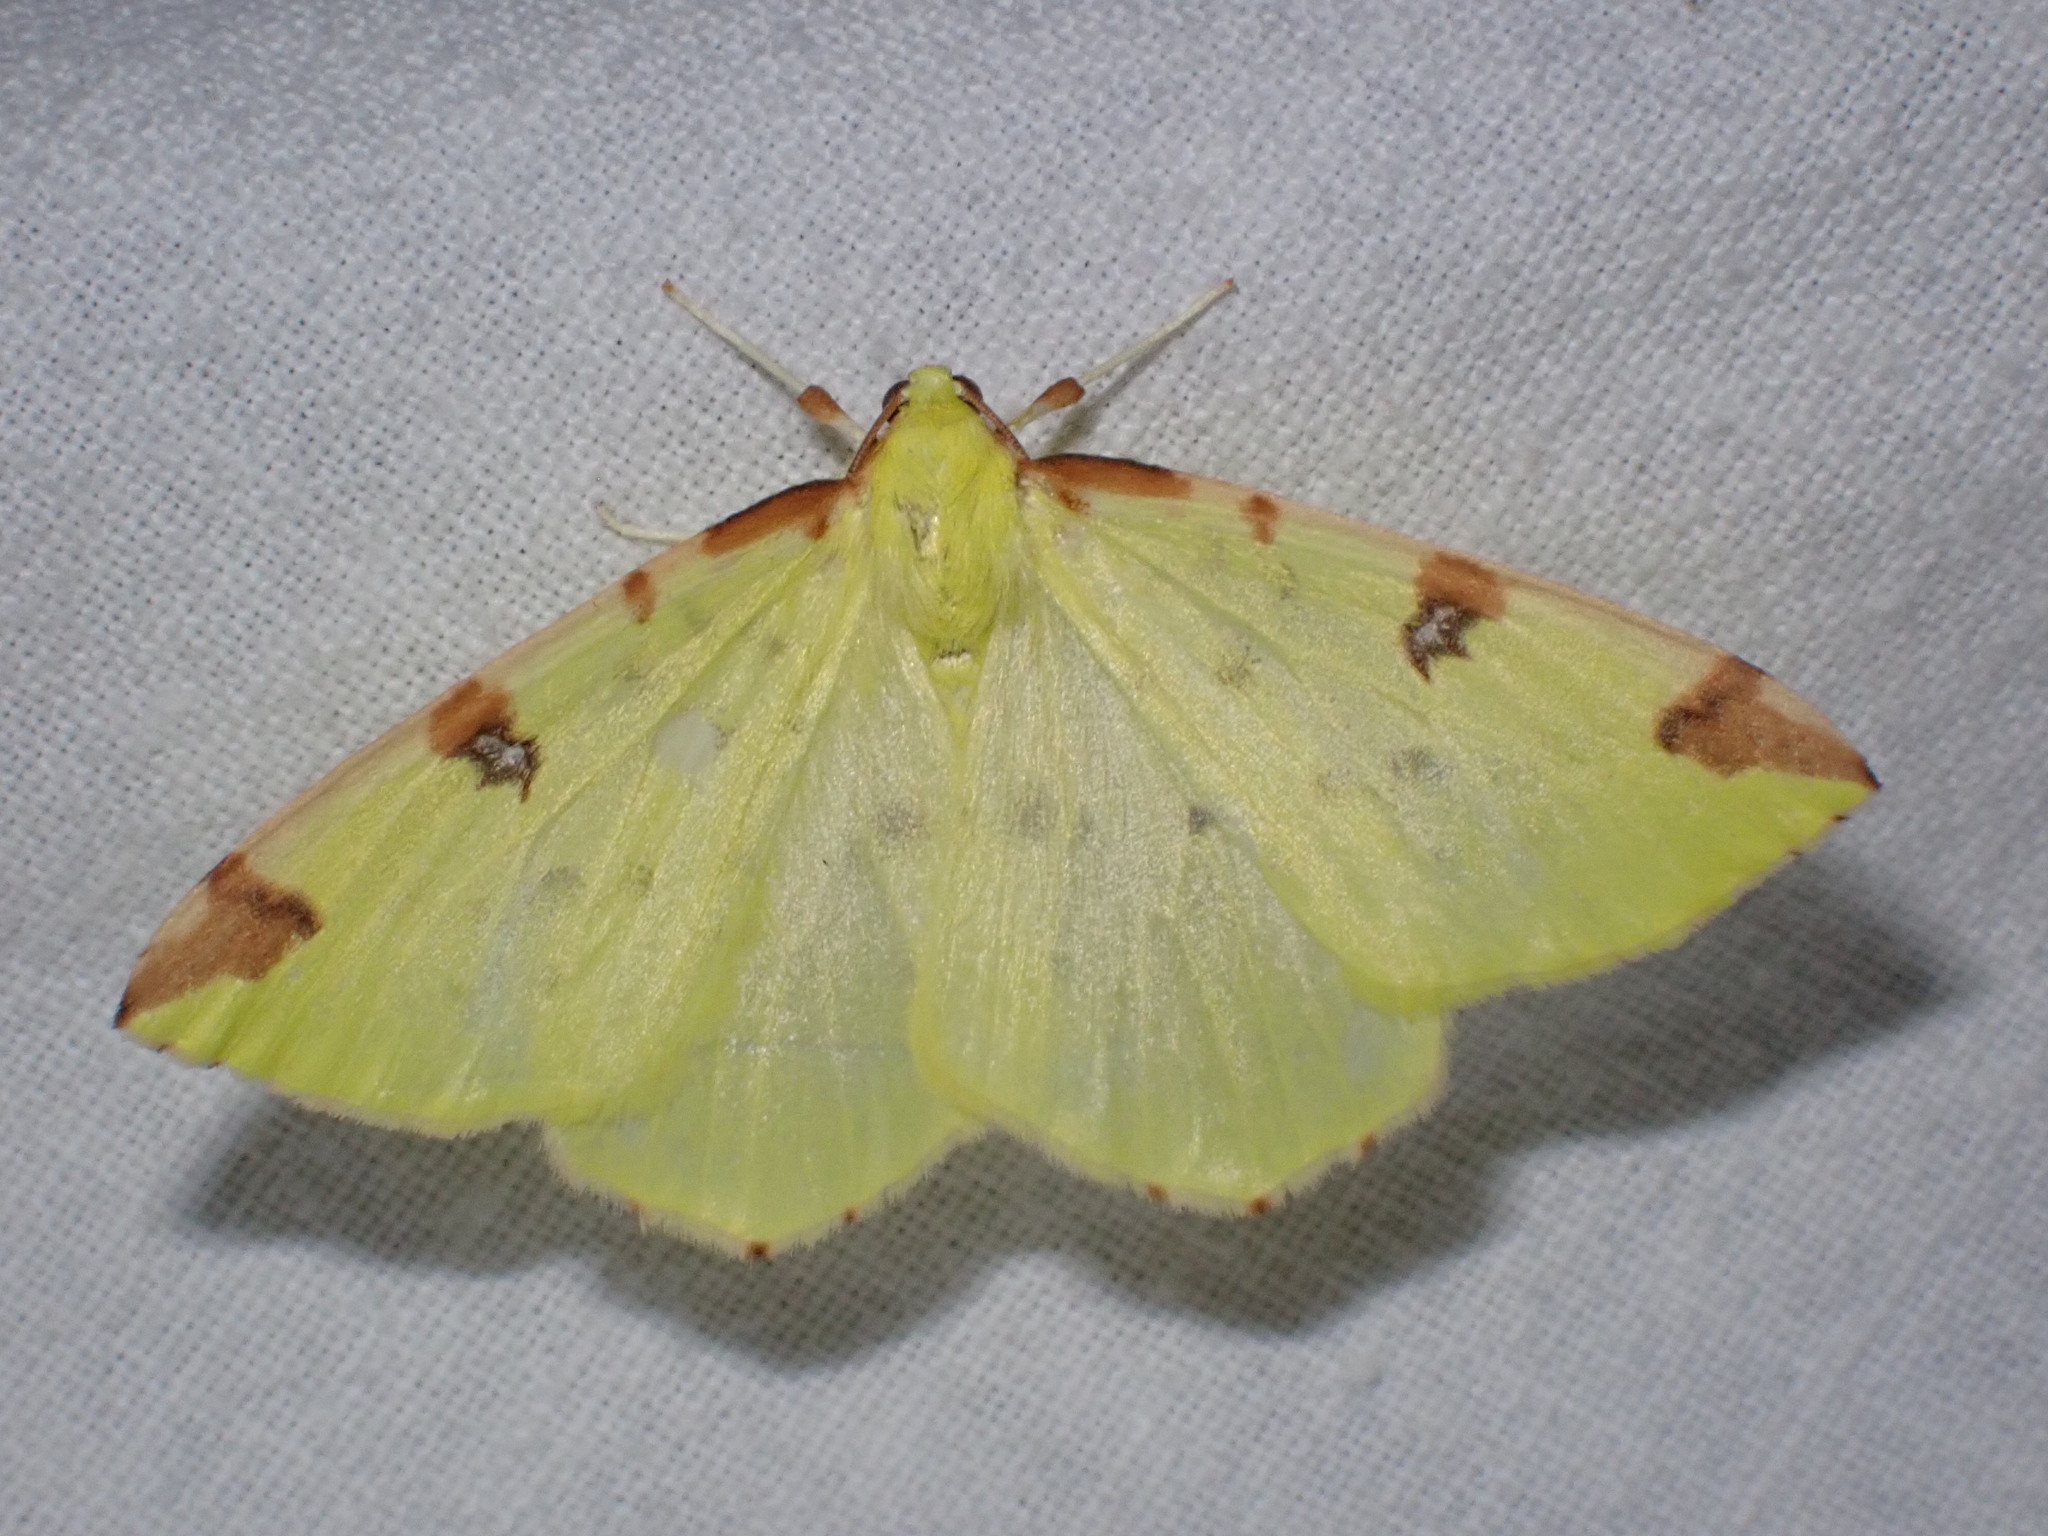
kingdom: Animalia
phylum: Arthropoda
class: Insecta
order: Lepidoptera
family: Geometridae
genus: Opisthograptis
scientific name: Opisthograptis luteolata
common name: Brimstone moth
